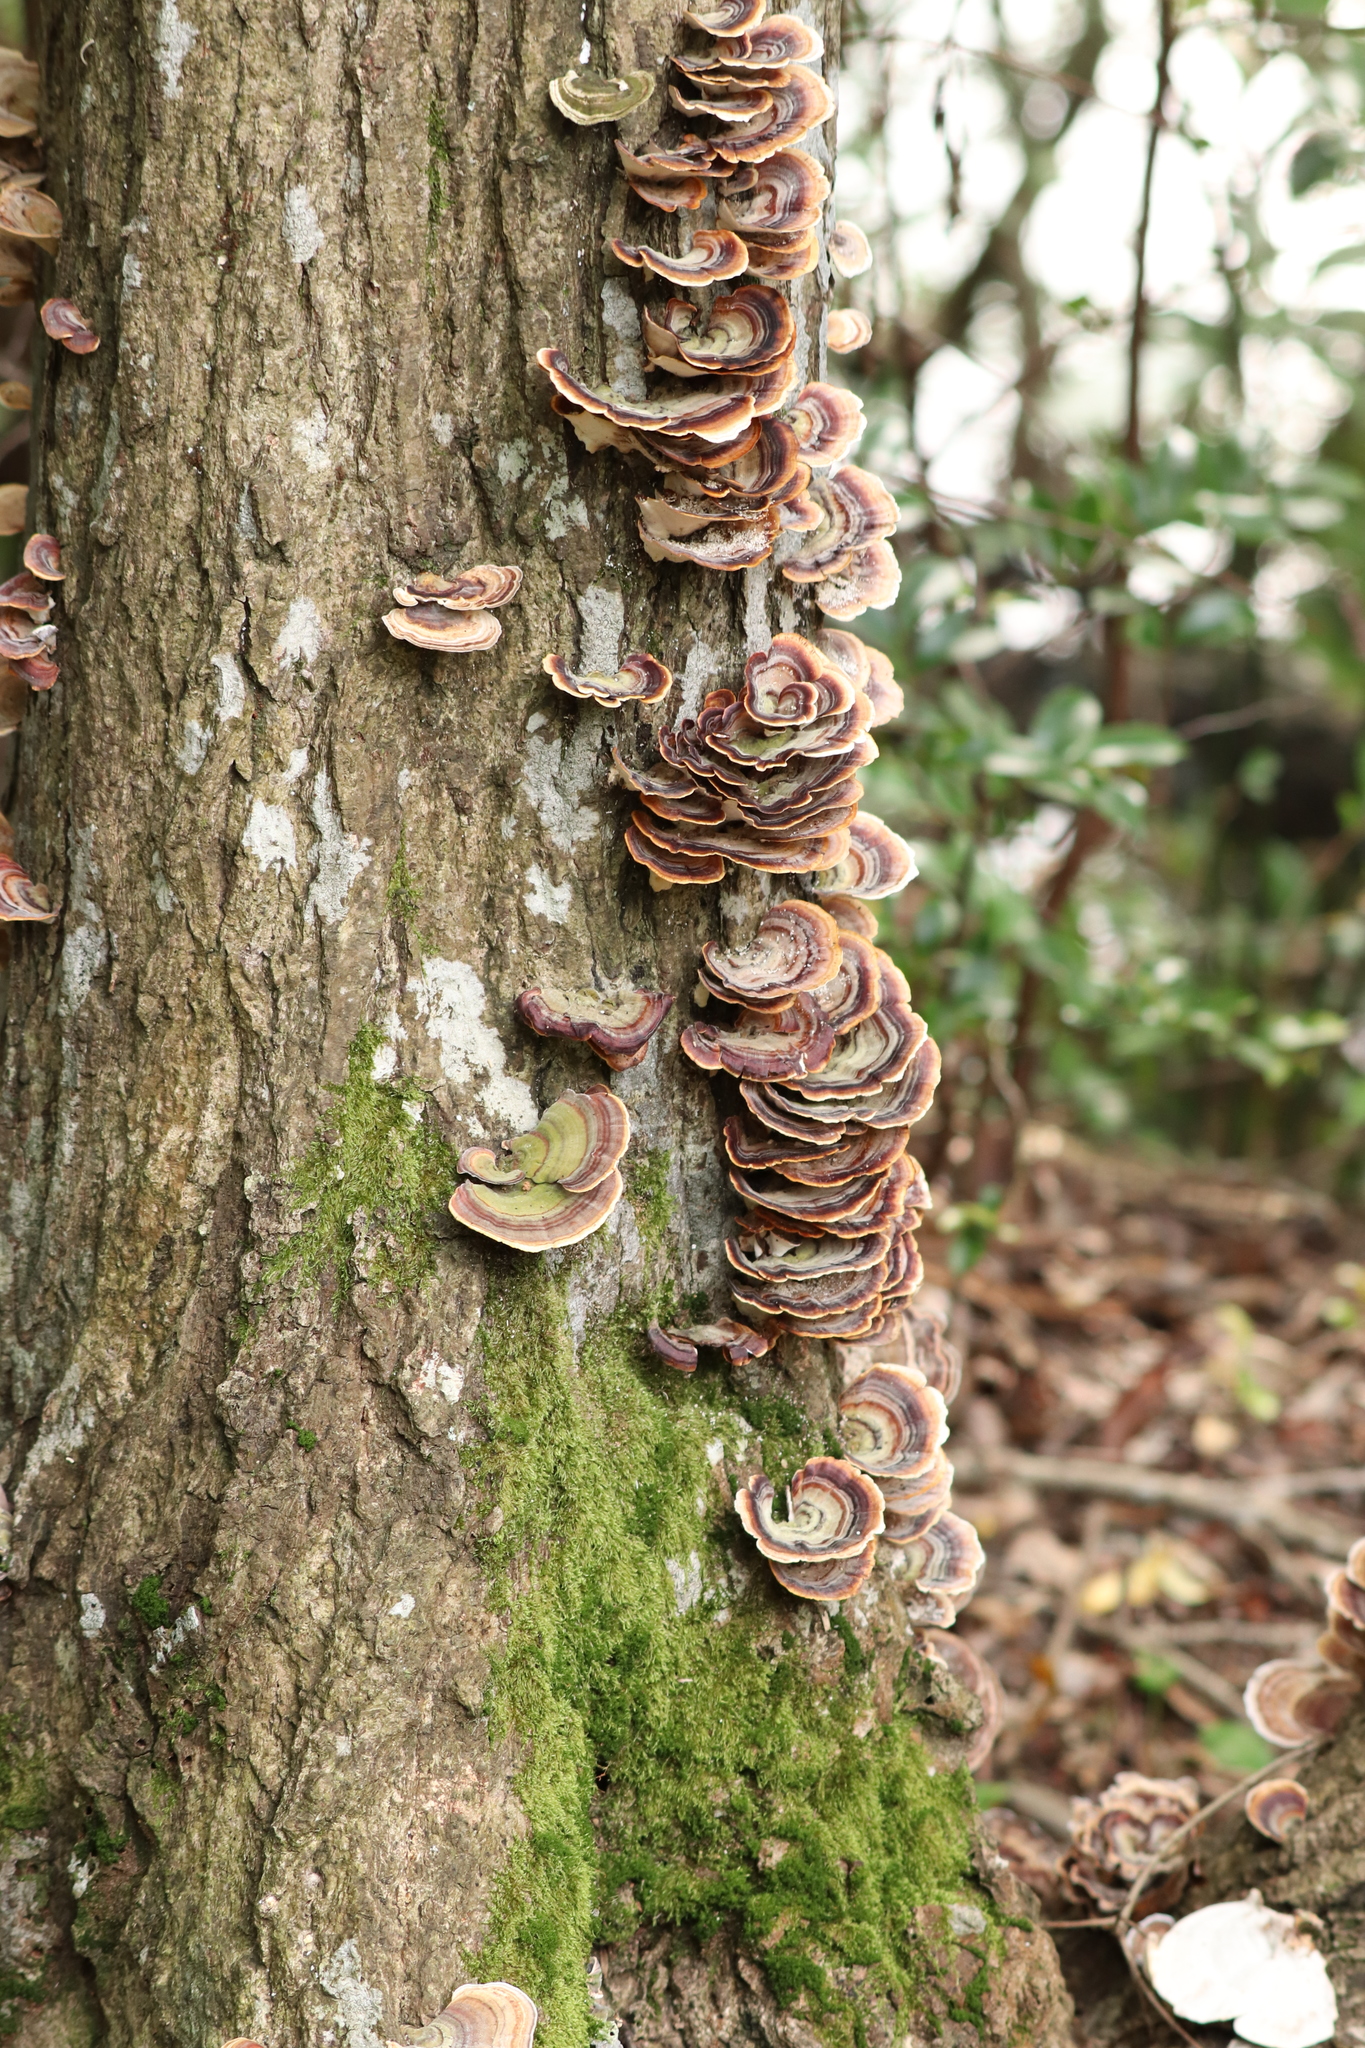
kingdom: Fungi
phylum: Basidiomycota
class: Agaricomycetes
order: Polyporales
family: Polyporaceae
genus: Microporus
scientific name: Microporus affinis
